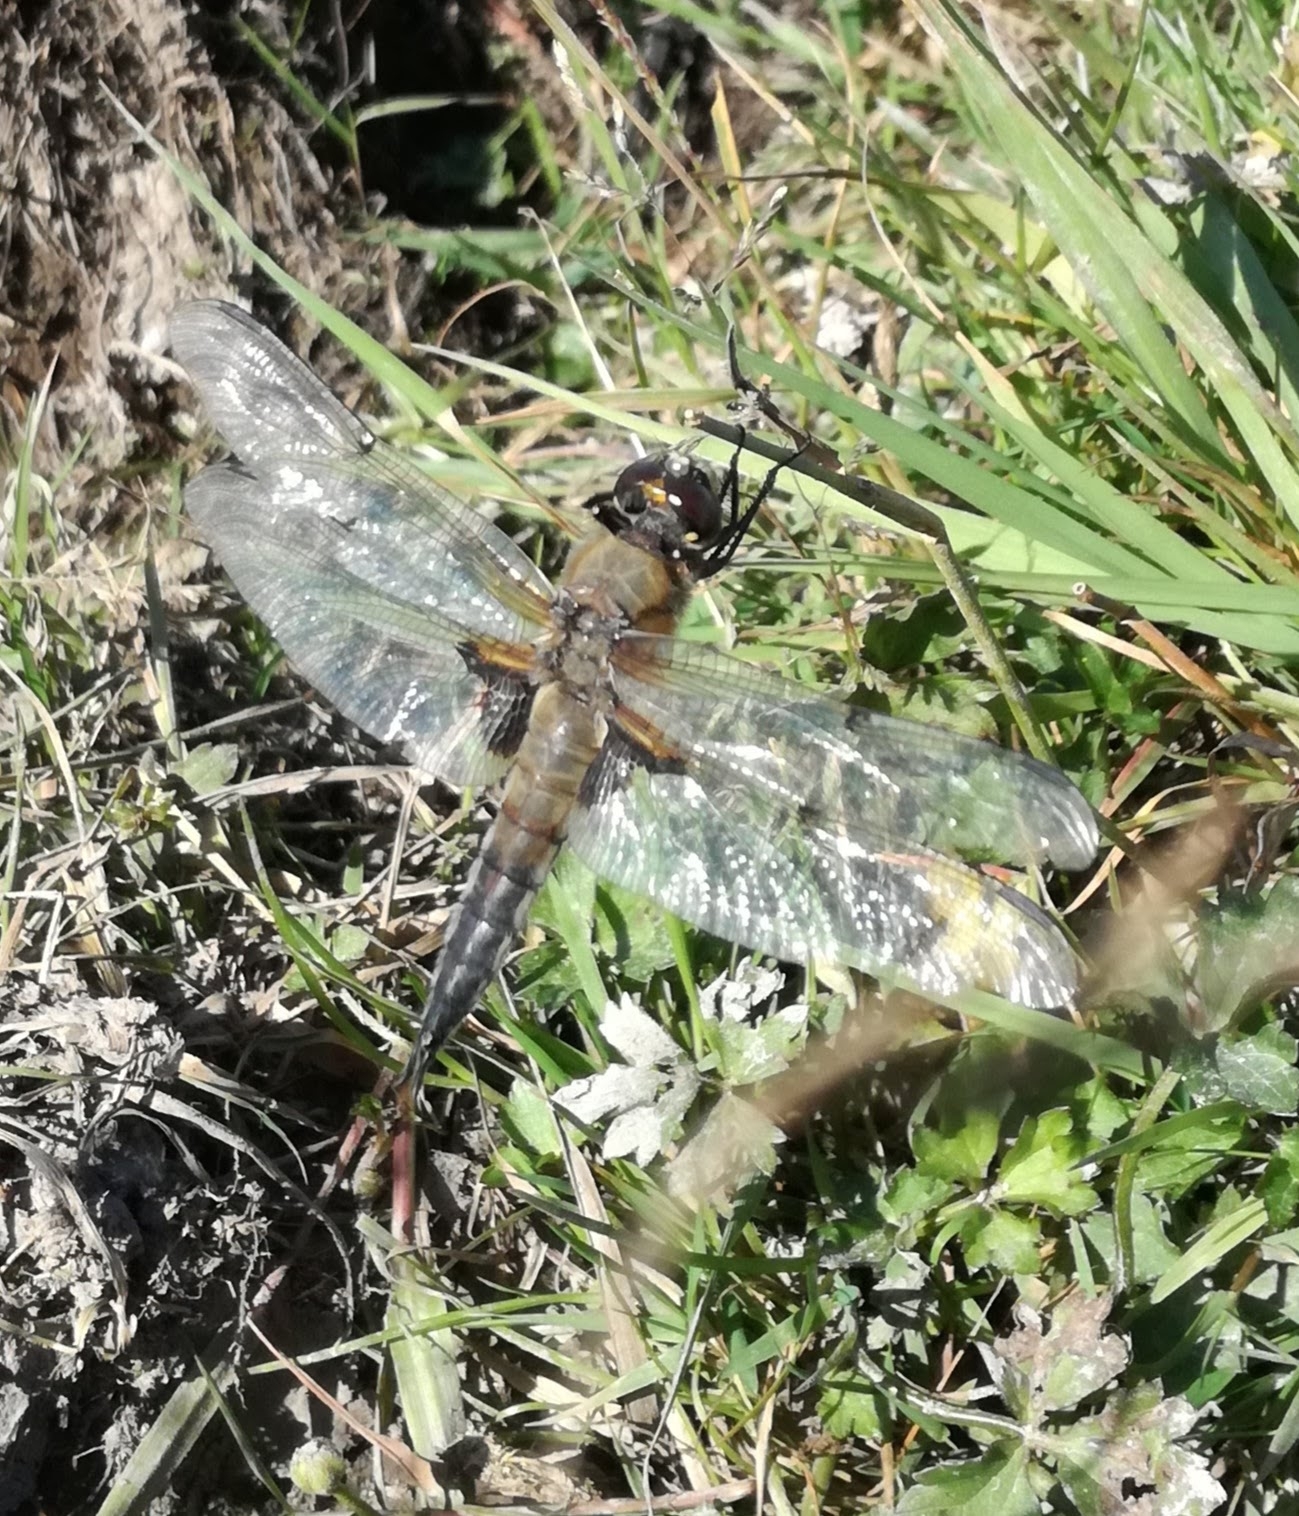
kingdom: Animalia
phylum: Arthropoda
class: Insecta
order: Odonata
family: Libellulidae
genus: Libellula
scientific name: Libellula quadrimaculata
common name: Four-spotted chaser
